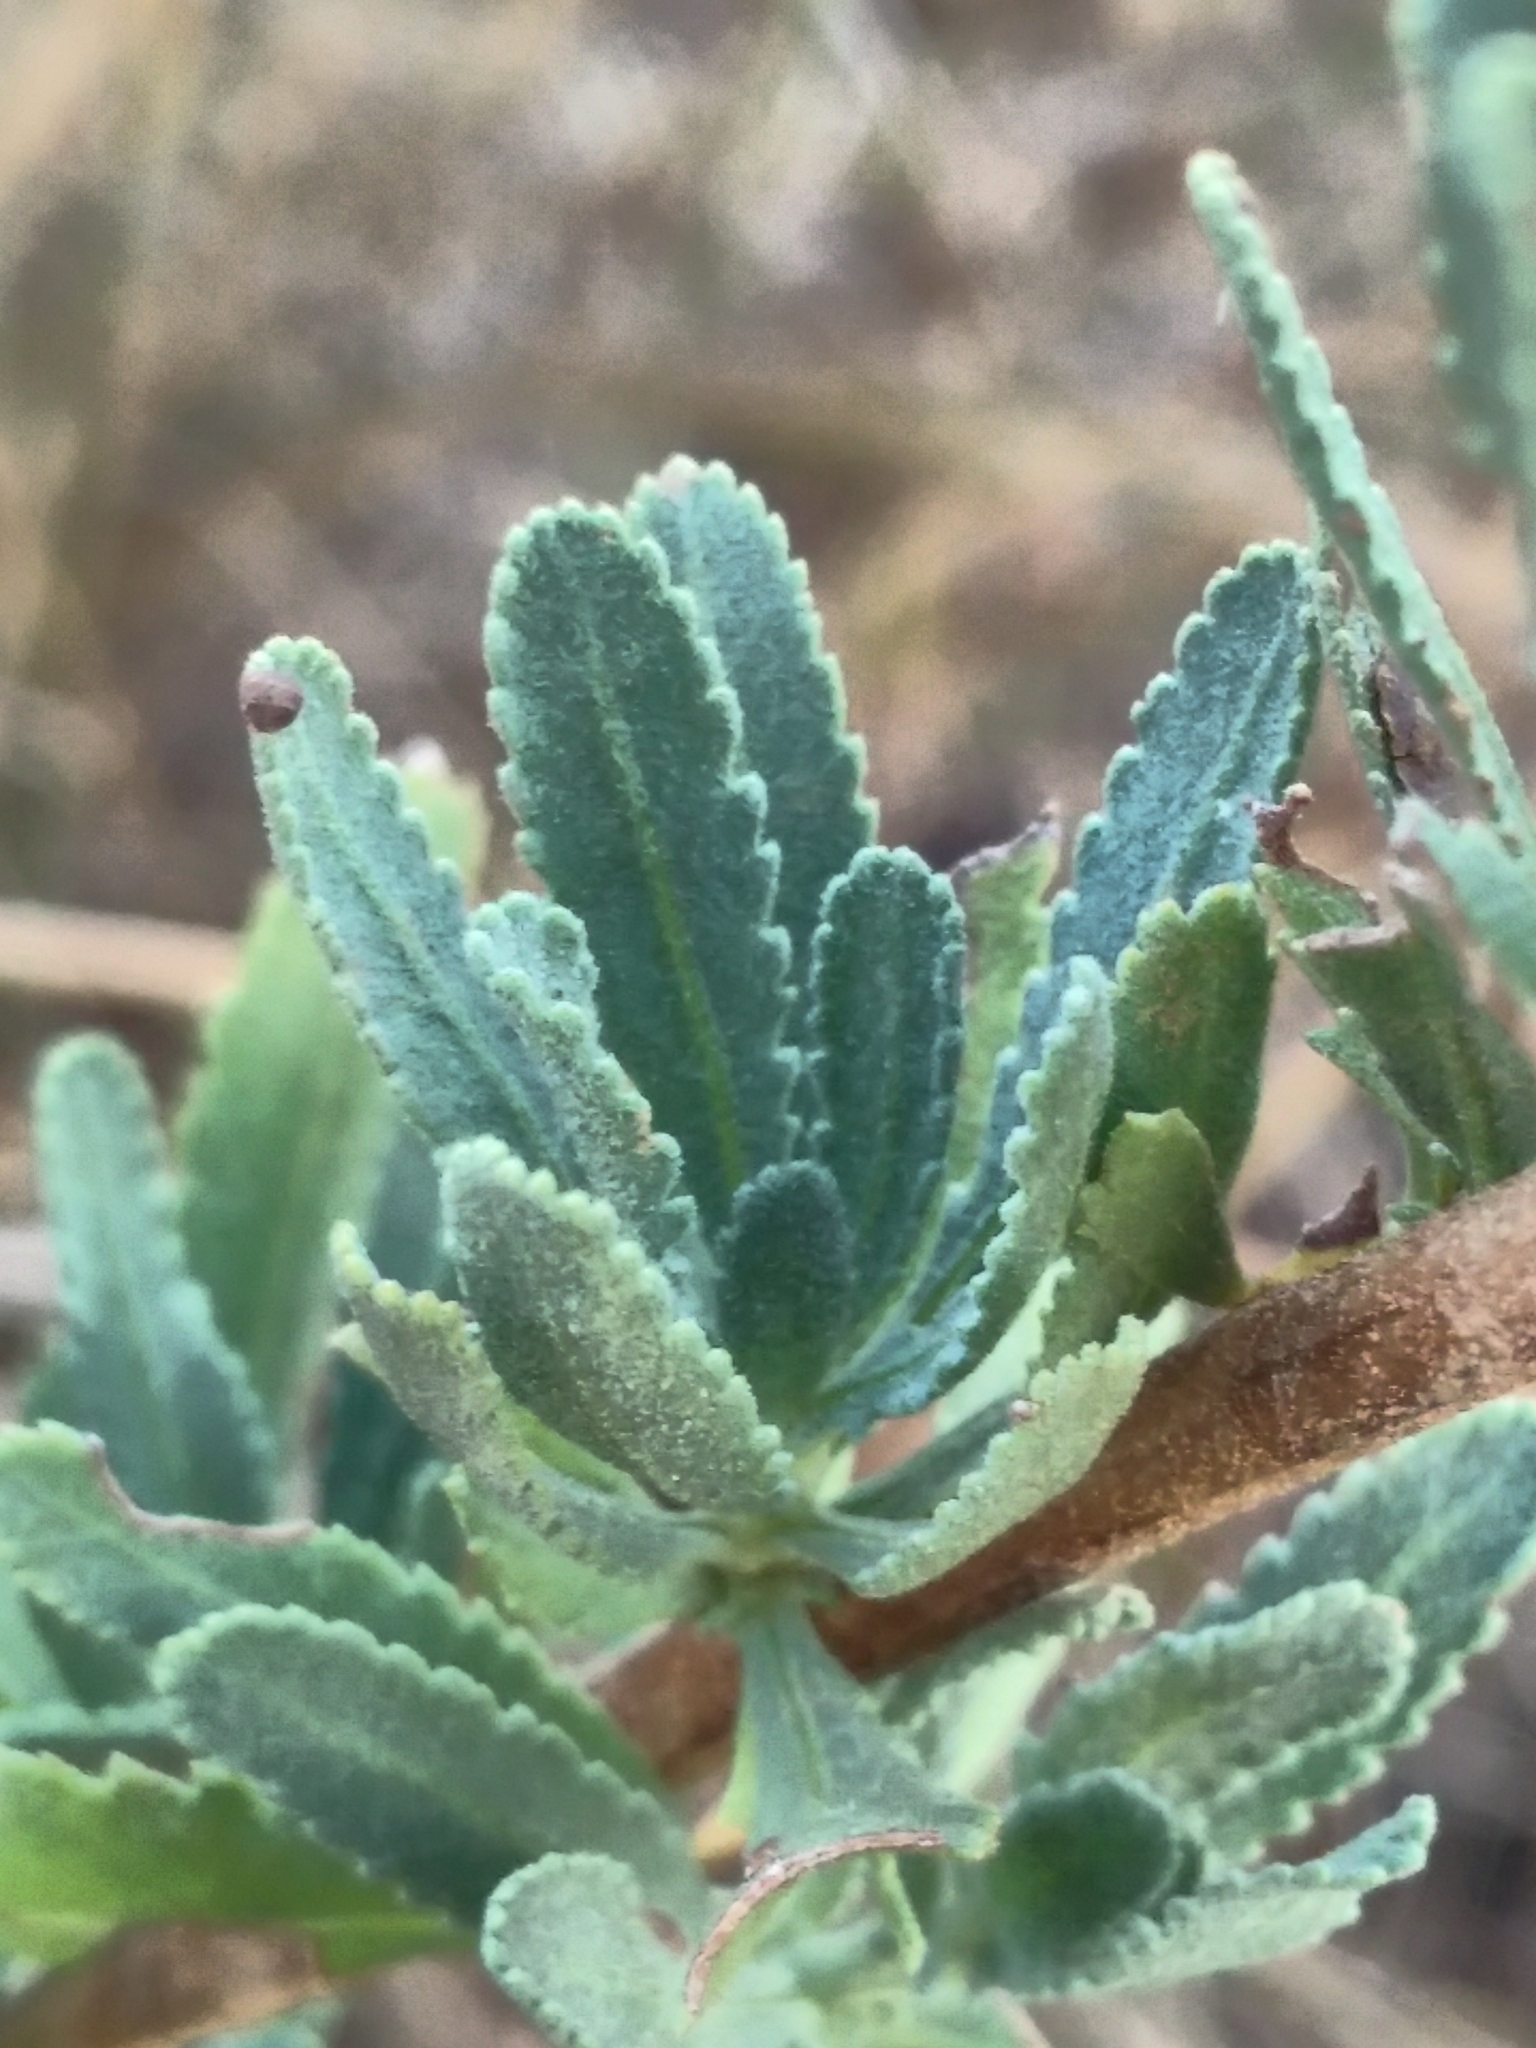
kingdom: Plantae
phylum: Tracheophyta
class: Magnoliopsida
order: Asterales
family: Asteraceae
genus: Achillea
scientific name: Achillea ageratum
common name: Sweet-nancy
